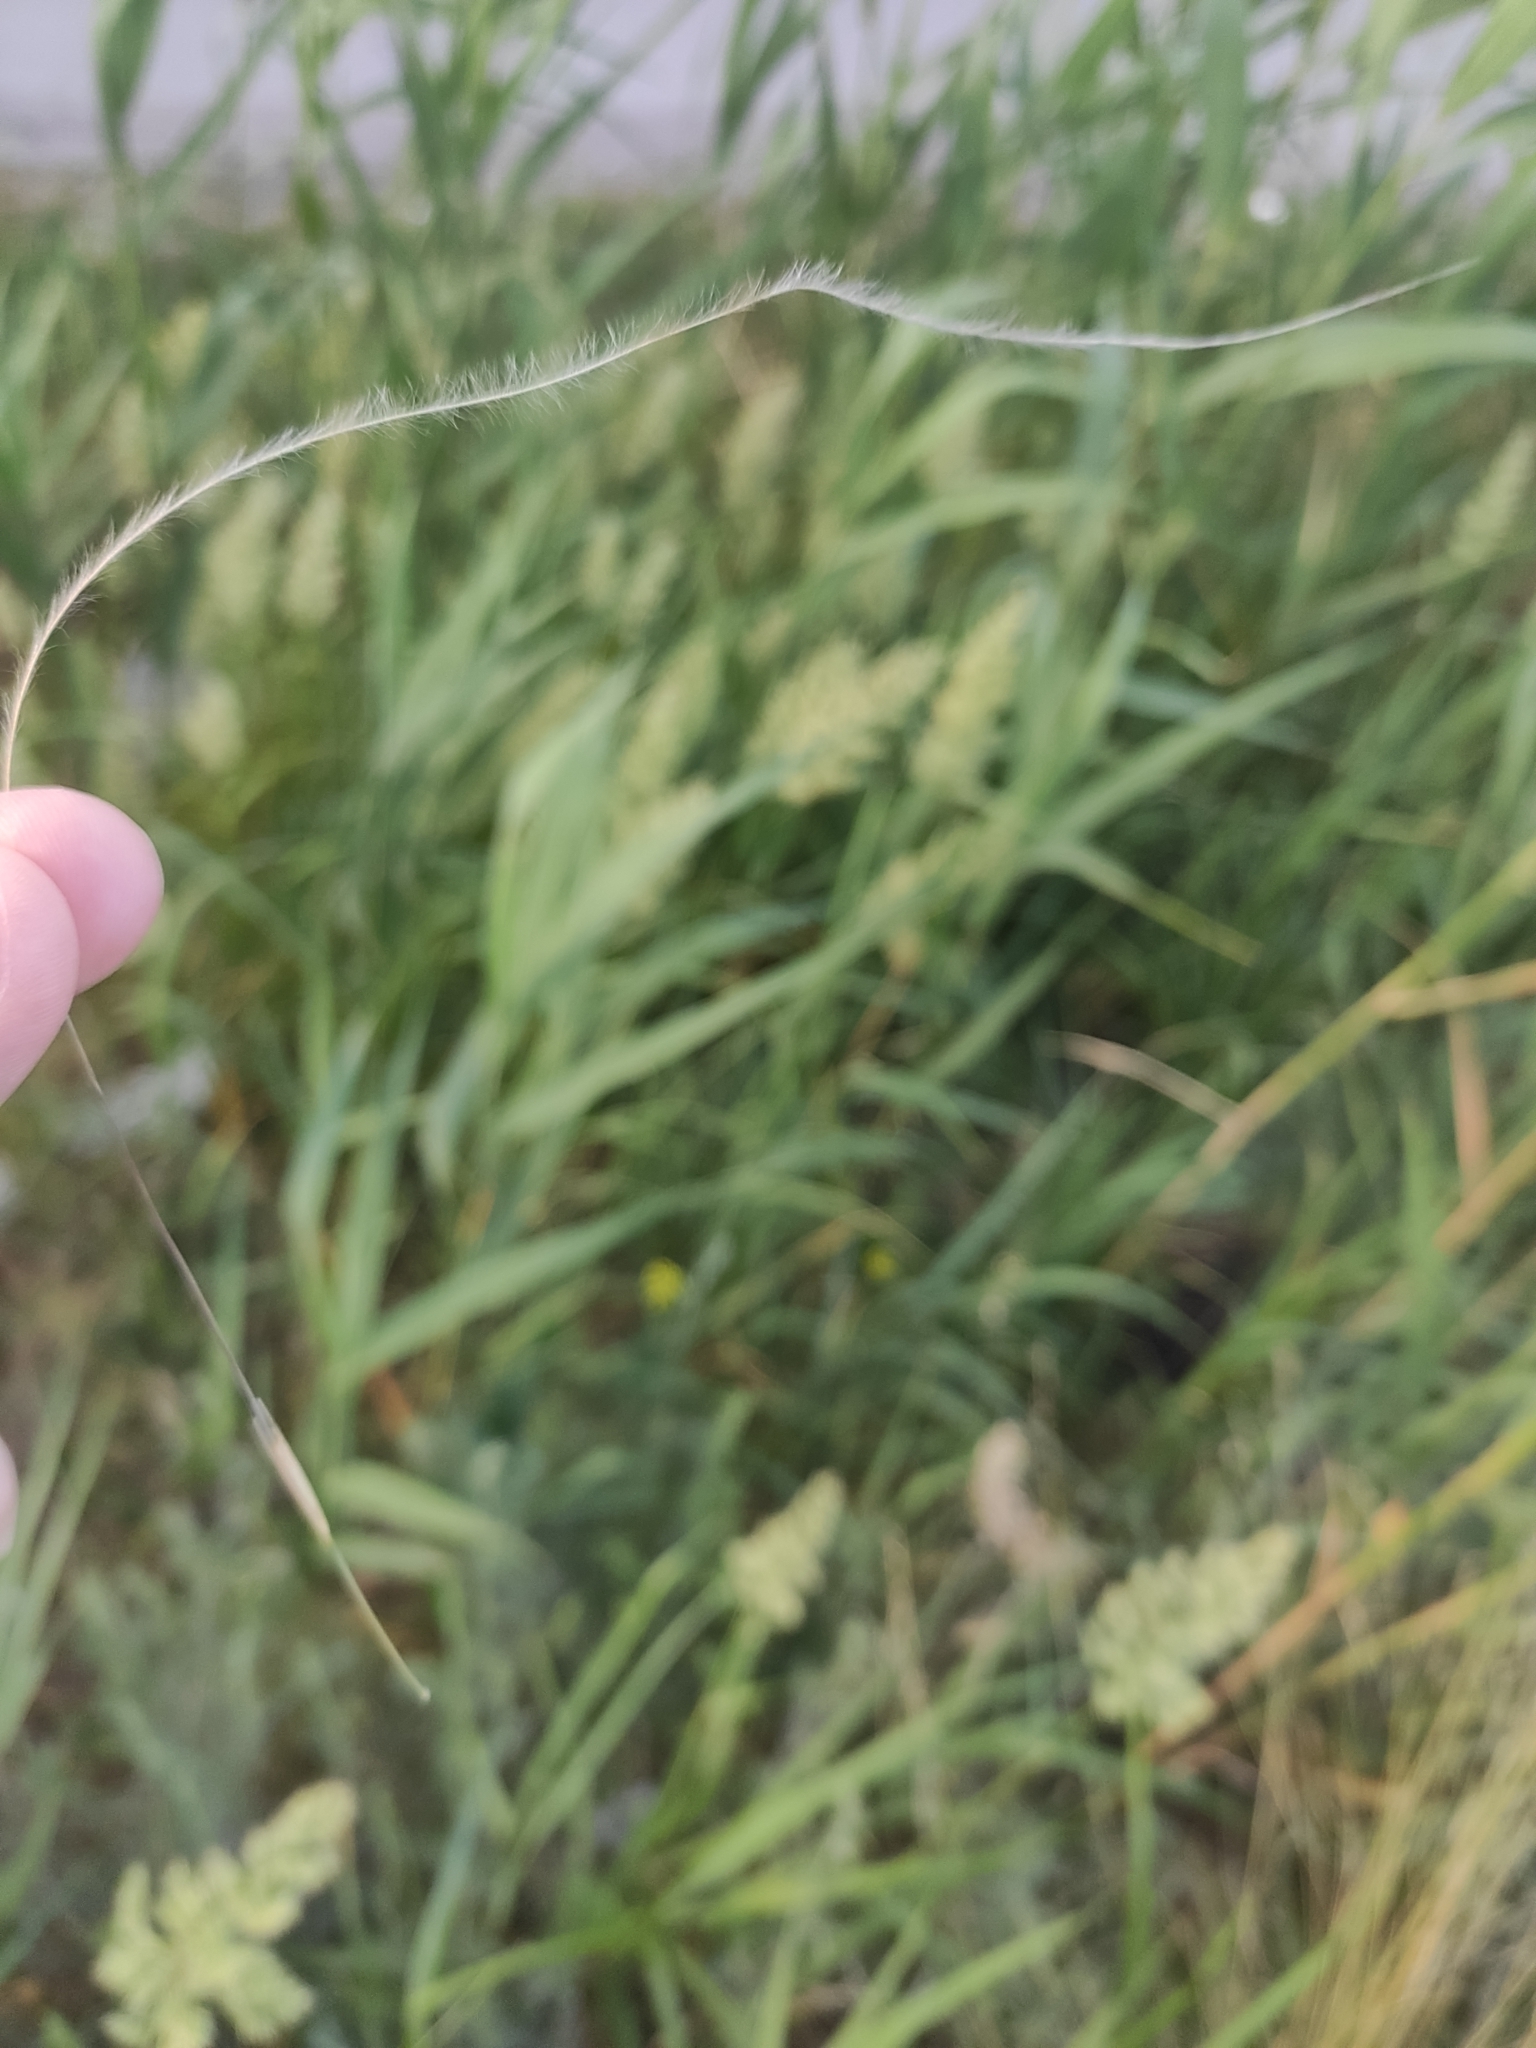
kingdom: Plantae
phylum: Tracheophyta
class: Liliopsida
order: Poales
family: Poaceae
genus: Stipa
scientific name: Stipa lessingiana
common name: Needle grass
